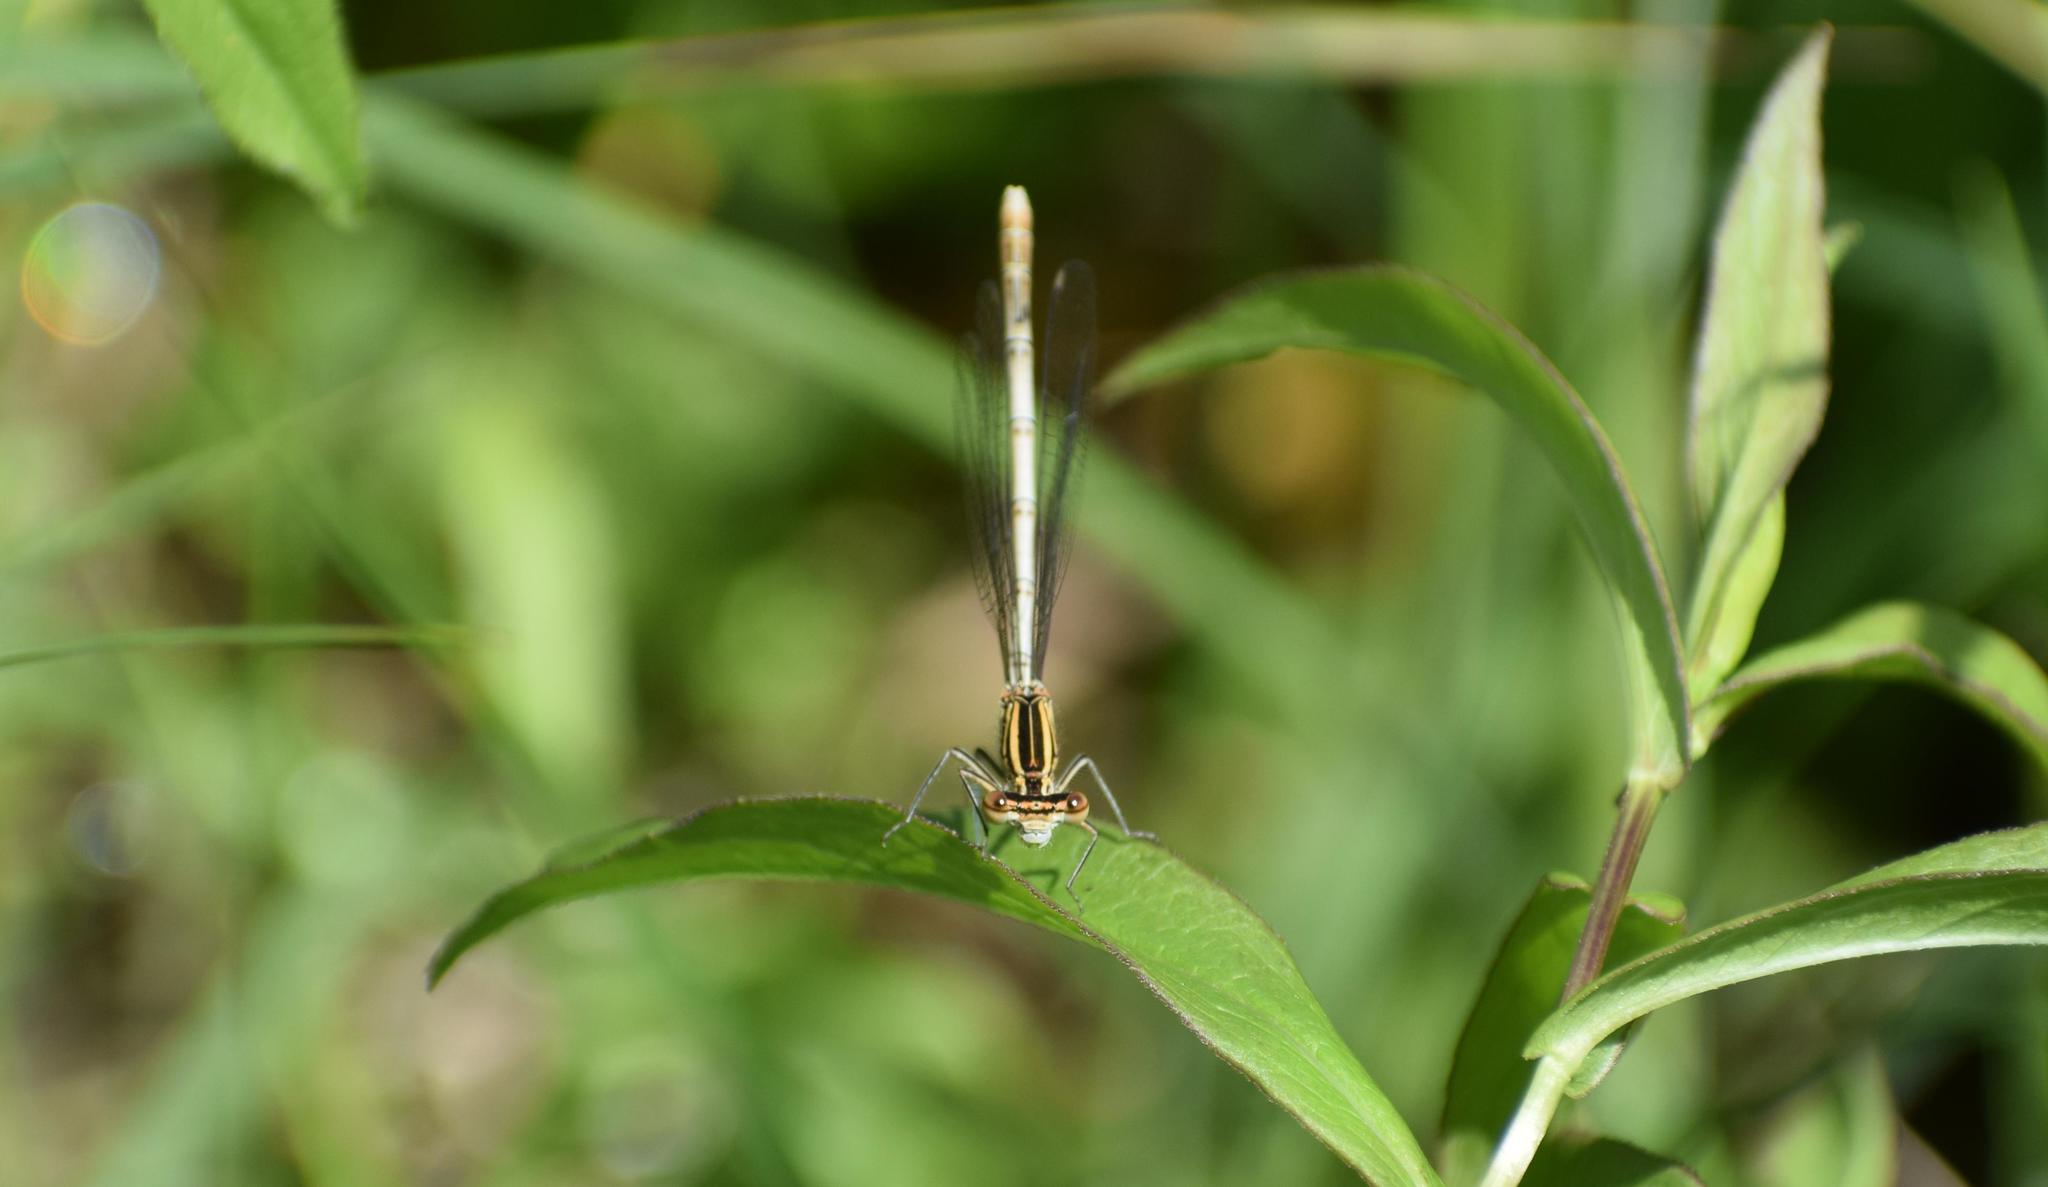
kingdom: Animalia
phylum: Arthropoda
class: Insecta
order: Odonata
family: Platycnemididae
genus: Platycnemis
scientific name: Platycnemis pennipes
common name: White-legged damselfly
